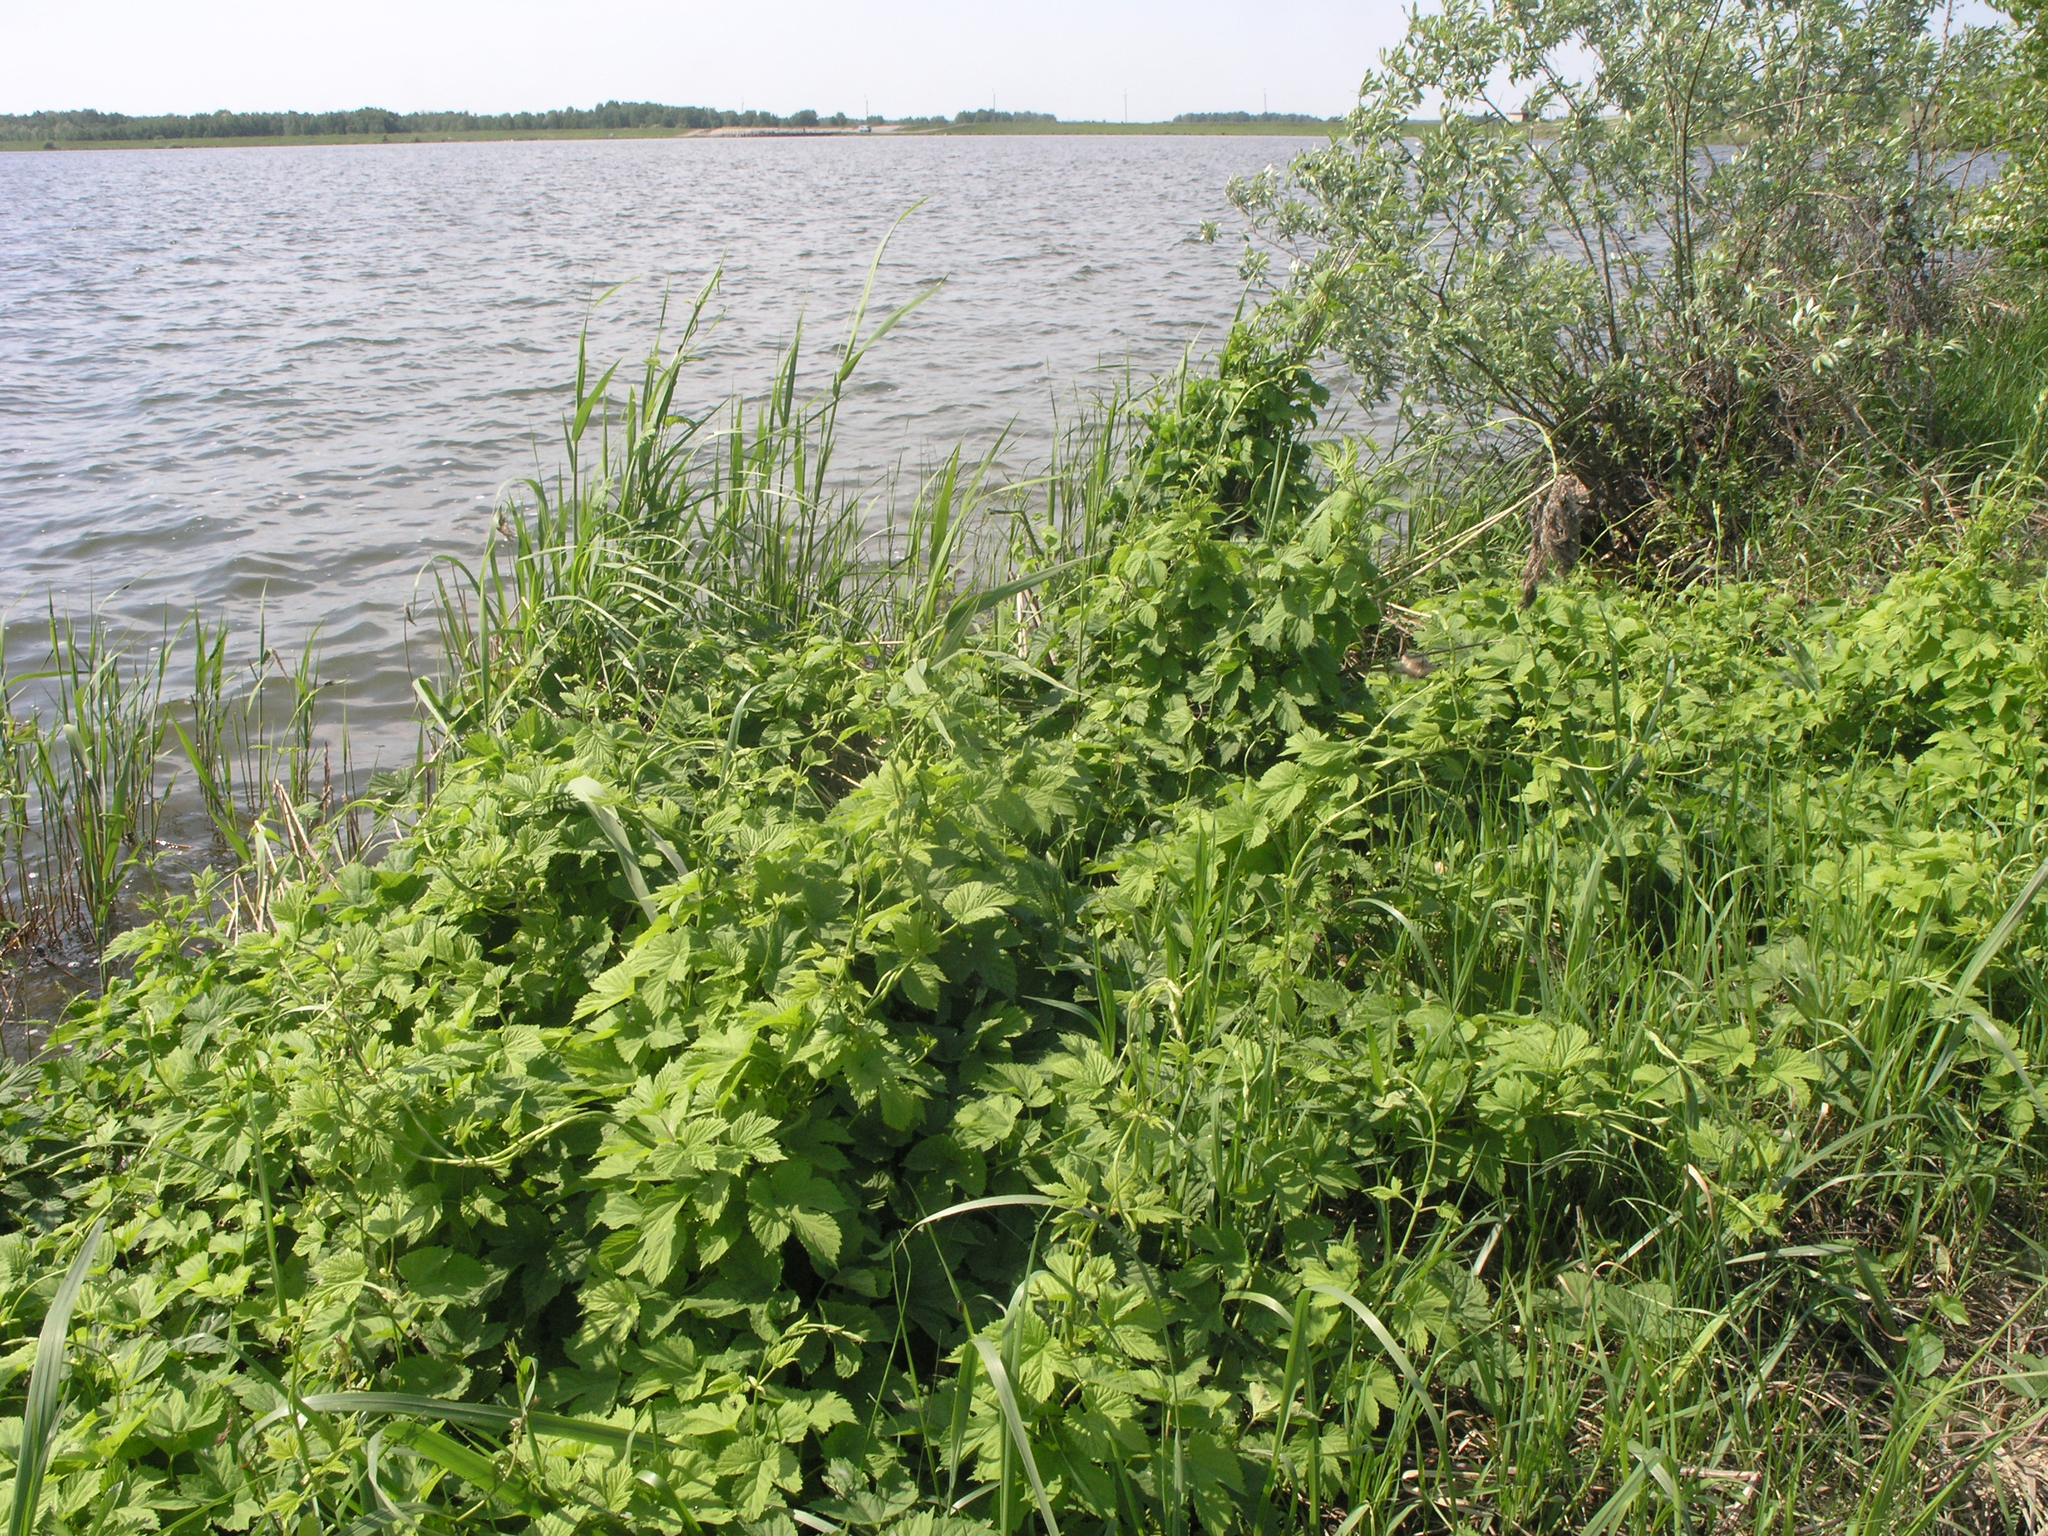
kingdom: Plantae
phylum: Tracheophyta
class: Magnoliopsida
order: Rosales
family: Cannabaceae
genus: Humulus
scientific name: Humulus lupulus
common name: Hop
